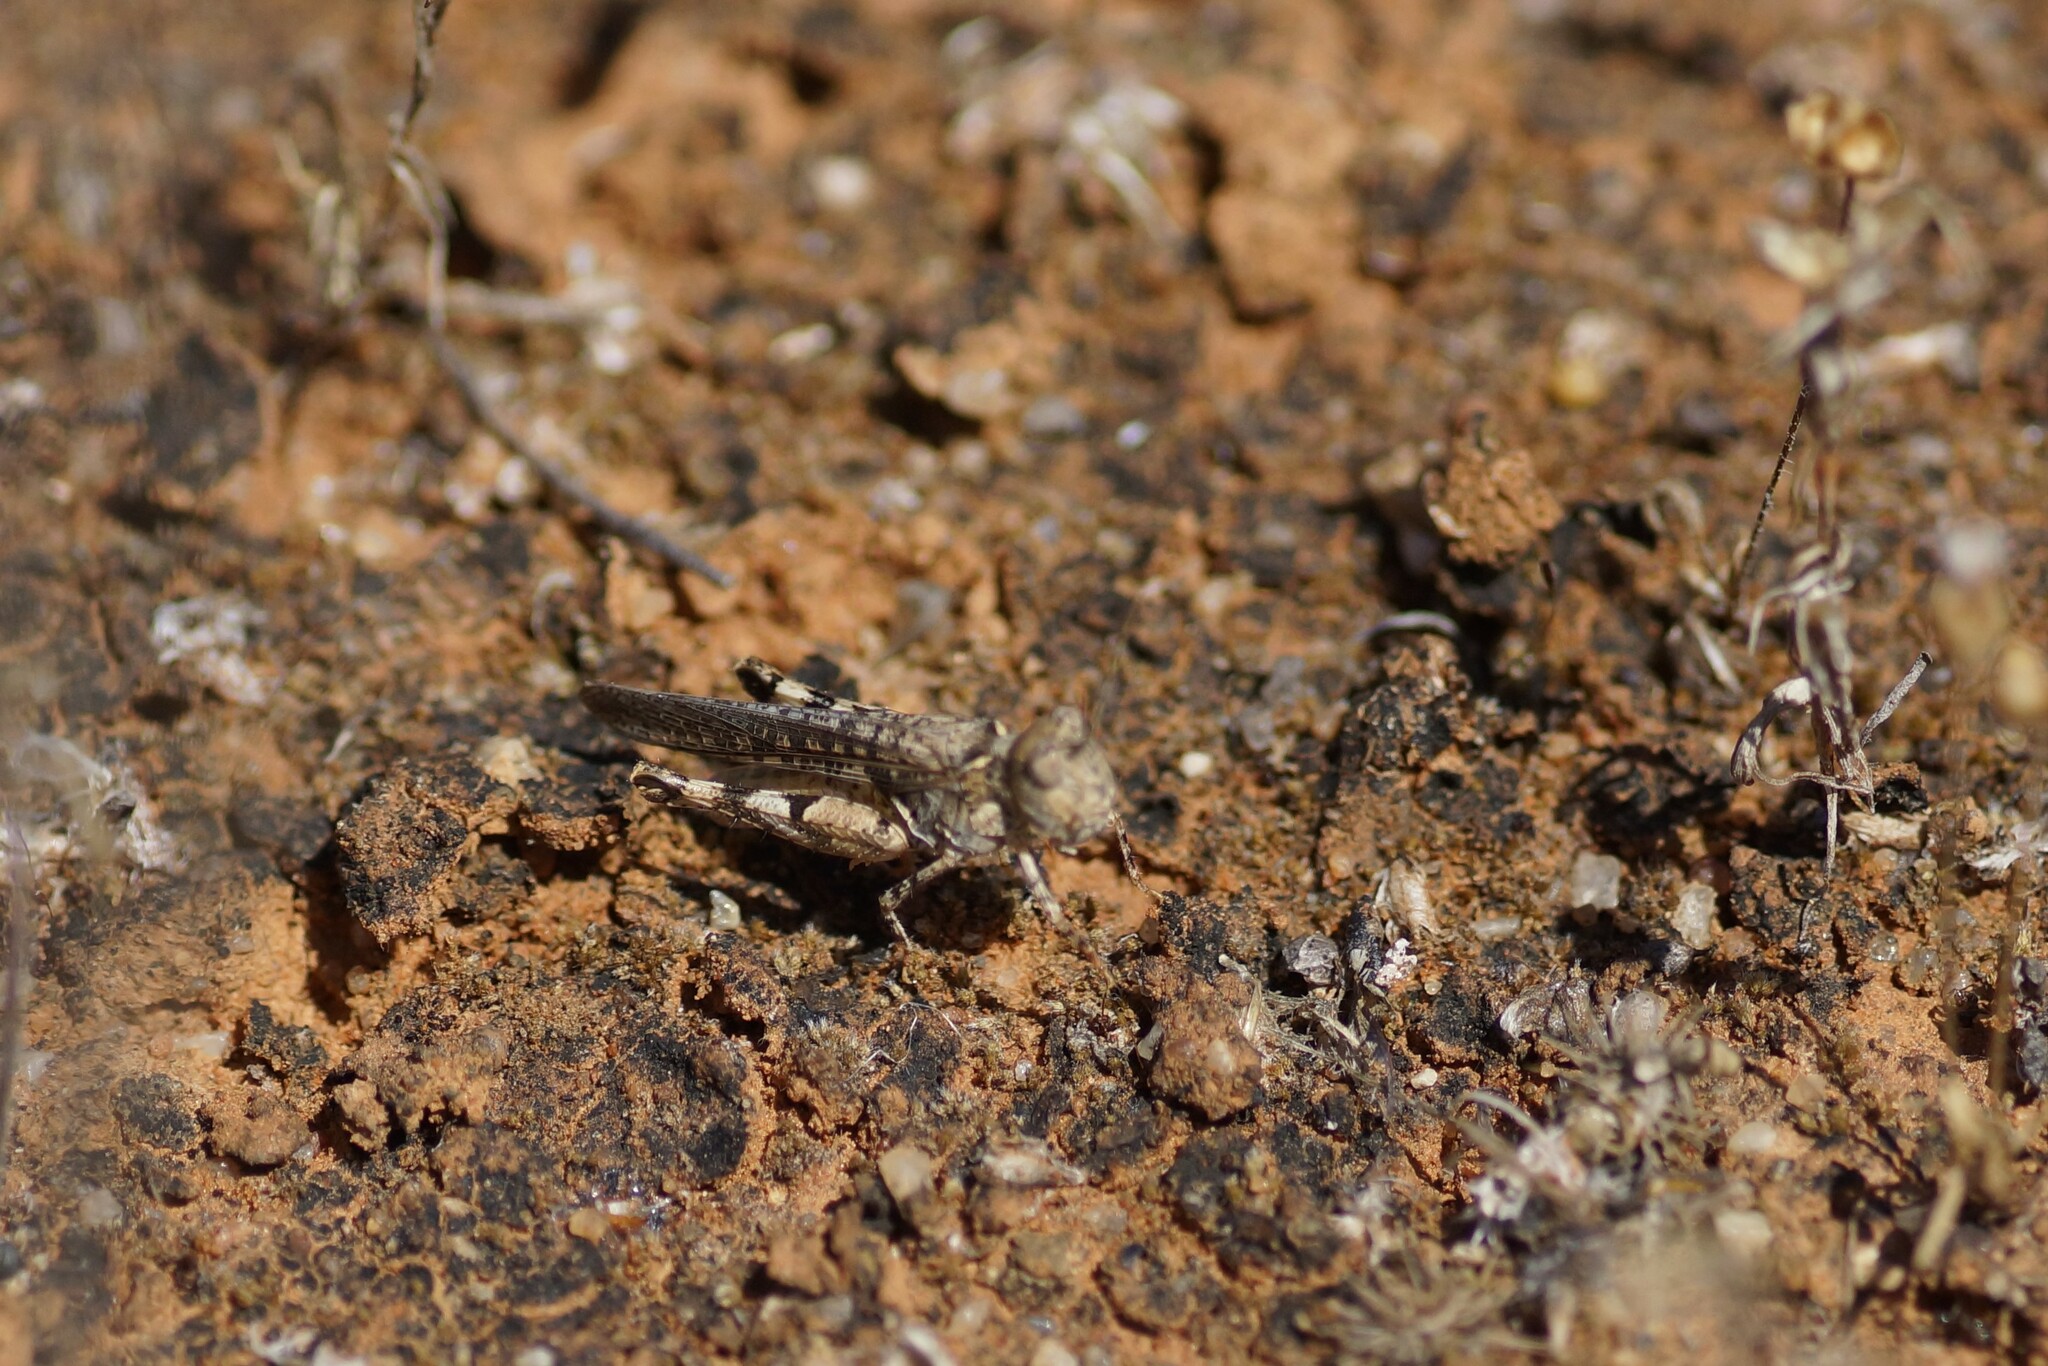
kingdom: Animalia
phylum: Arthropoda
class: Insecta
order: Orthoptera
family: Acrididae
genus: Pycnostictus
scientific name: Pycnostictus seriatus
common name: Common bandwing
